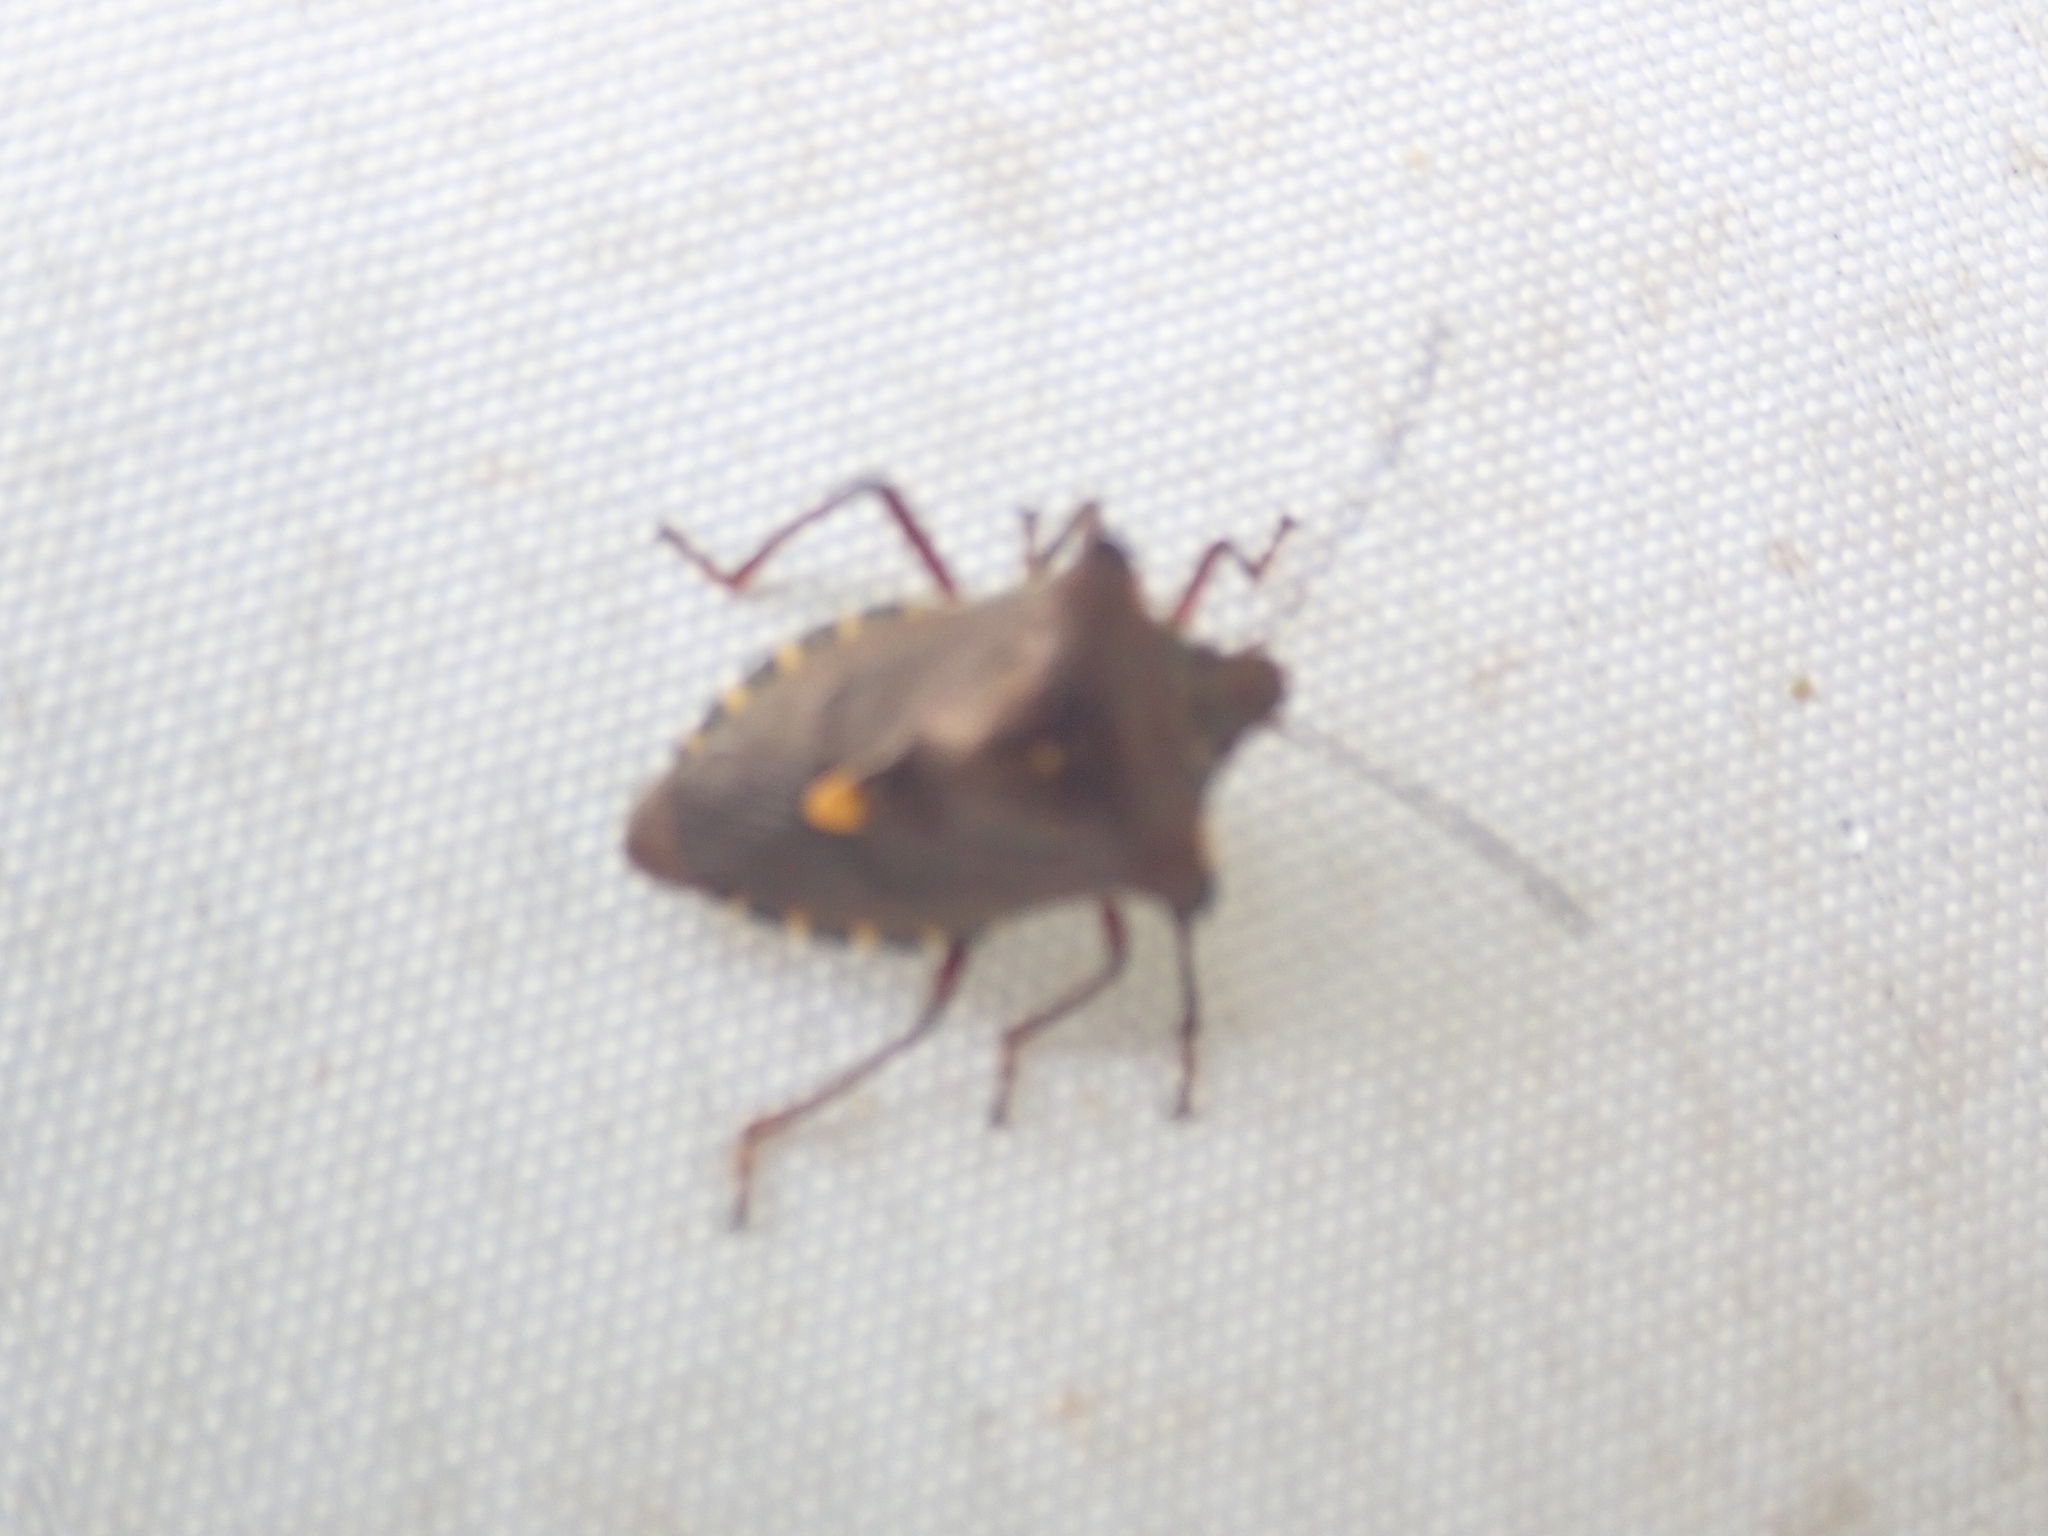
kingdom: Animalia
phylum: Arthropoda
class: Insecta
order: Hemiptera
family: Pentatomidae
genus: Pentatoma
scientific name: Pentatoma rufipes
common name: Forest bug
